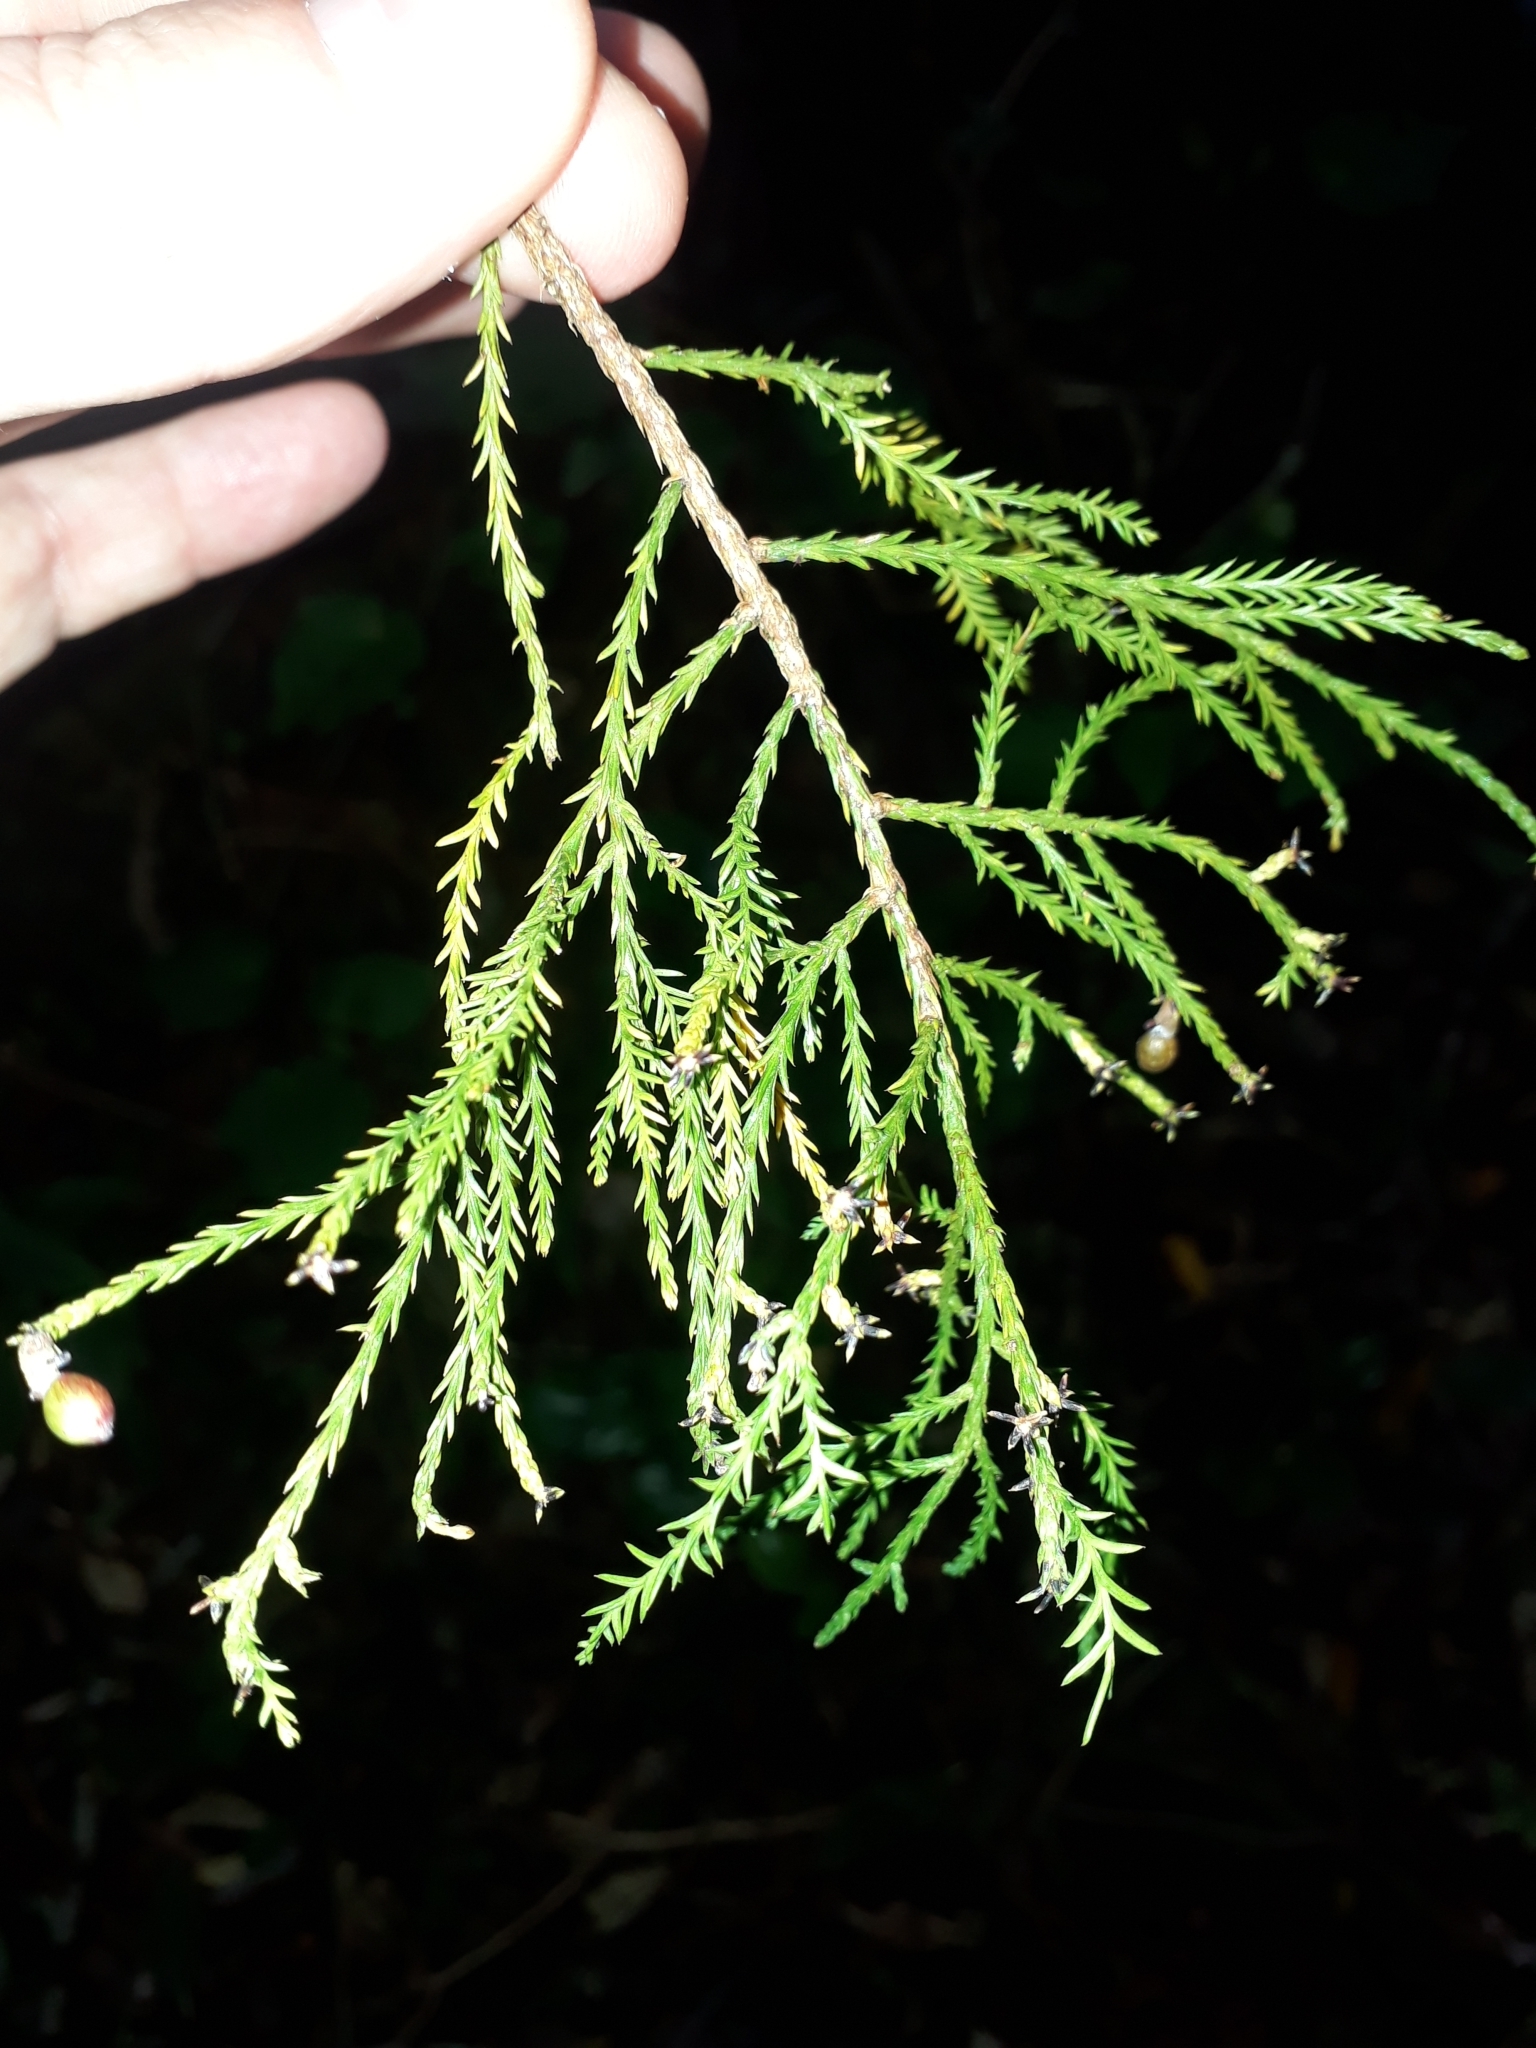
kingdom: Plantae
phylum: Tracheophyta
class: Pinopsida
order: Pinales
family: Podocarpaceae
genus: Dacrycarpus
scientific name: Dacrycarpus dacrydioides
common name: White pine
